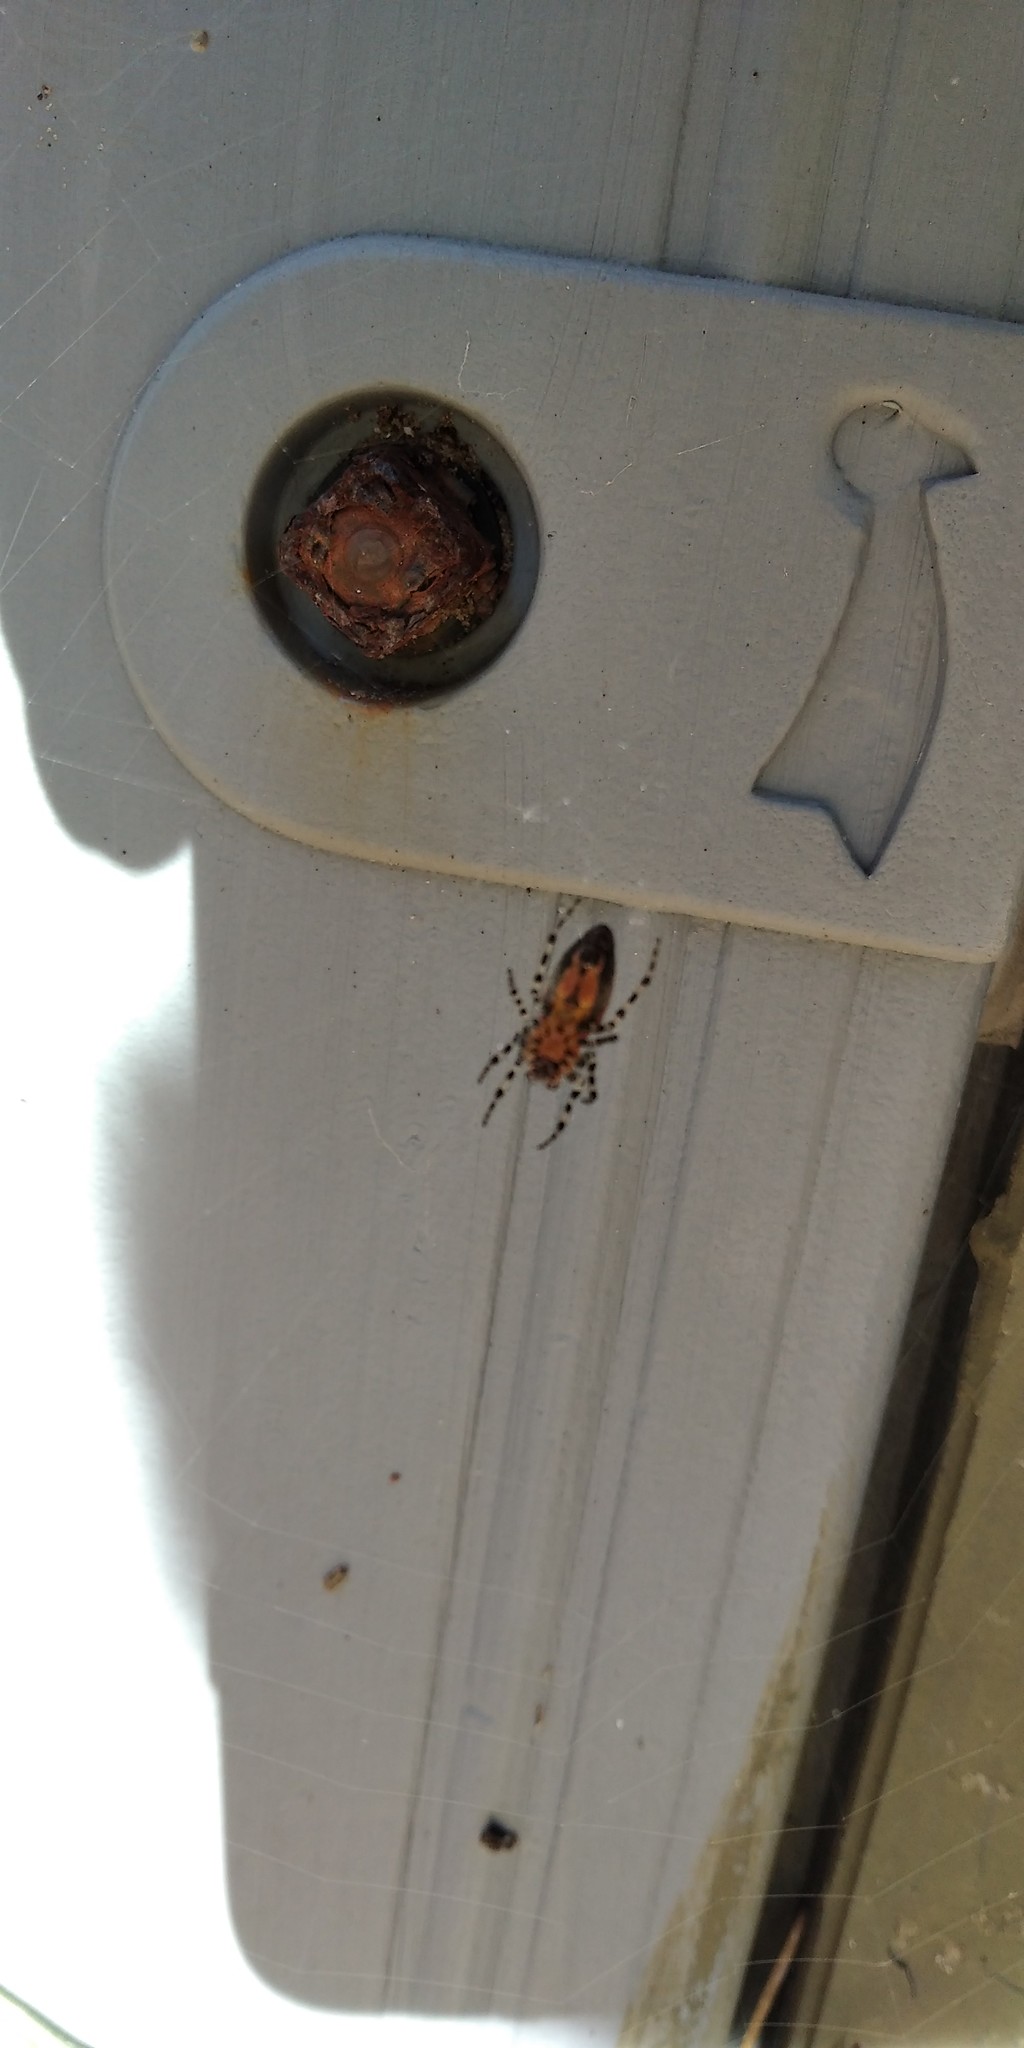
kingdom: Animalia
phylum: Arthropoda
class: Arachnida
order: Araneae
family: Araneidae
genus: Alpaida
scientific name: Alpaida gallardoi
